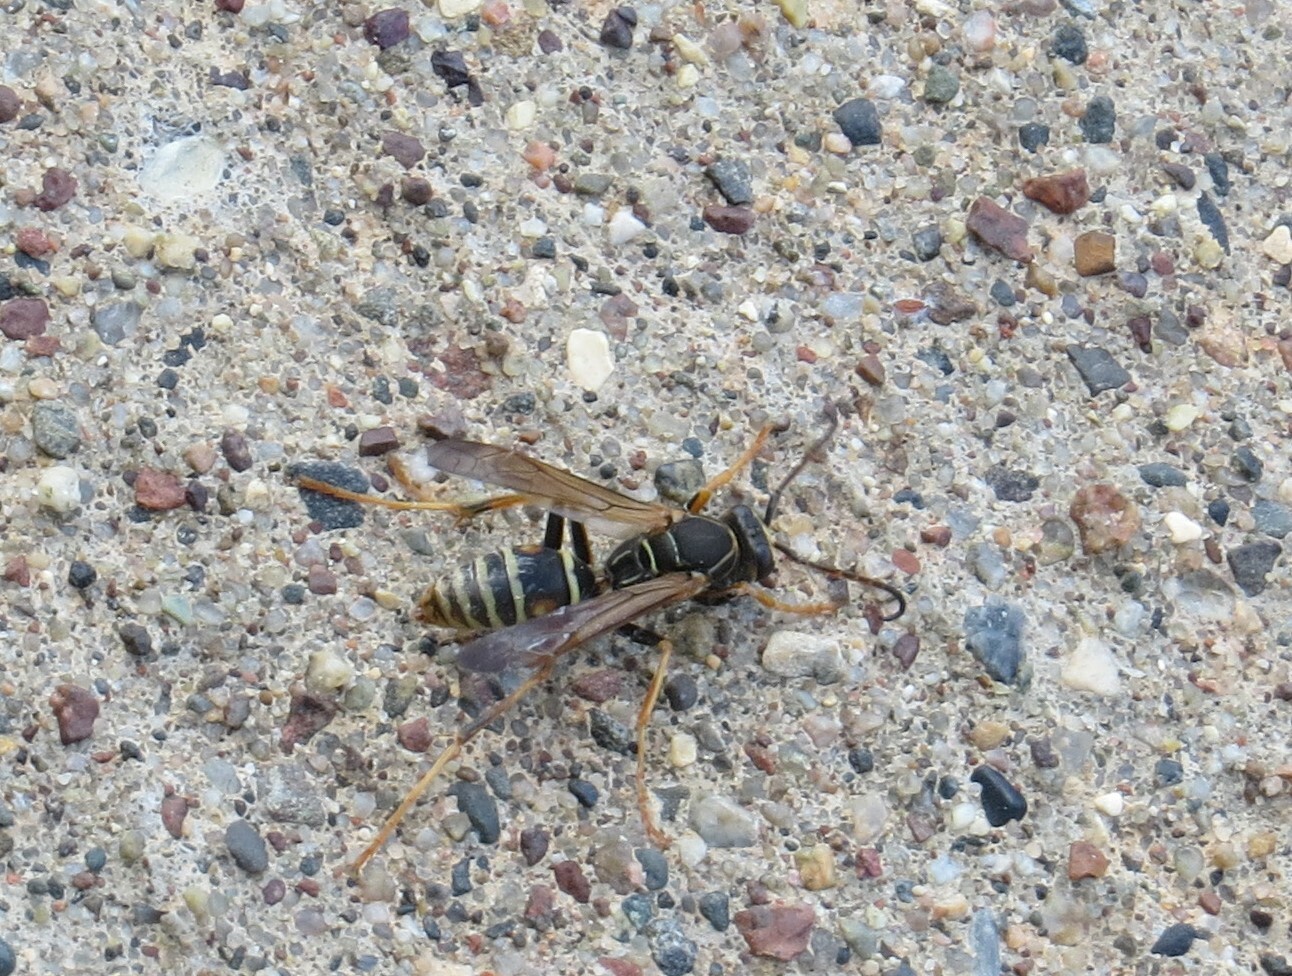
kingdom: Animalia
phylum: Arthropoda
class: Insecta
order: Hymenoptera
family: Eumenidae
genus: Polistes
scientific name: Polistes fuscatus
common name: Dark paper wasp
